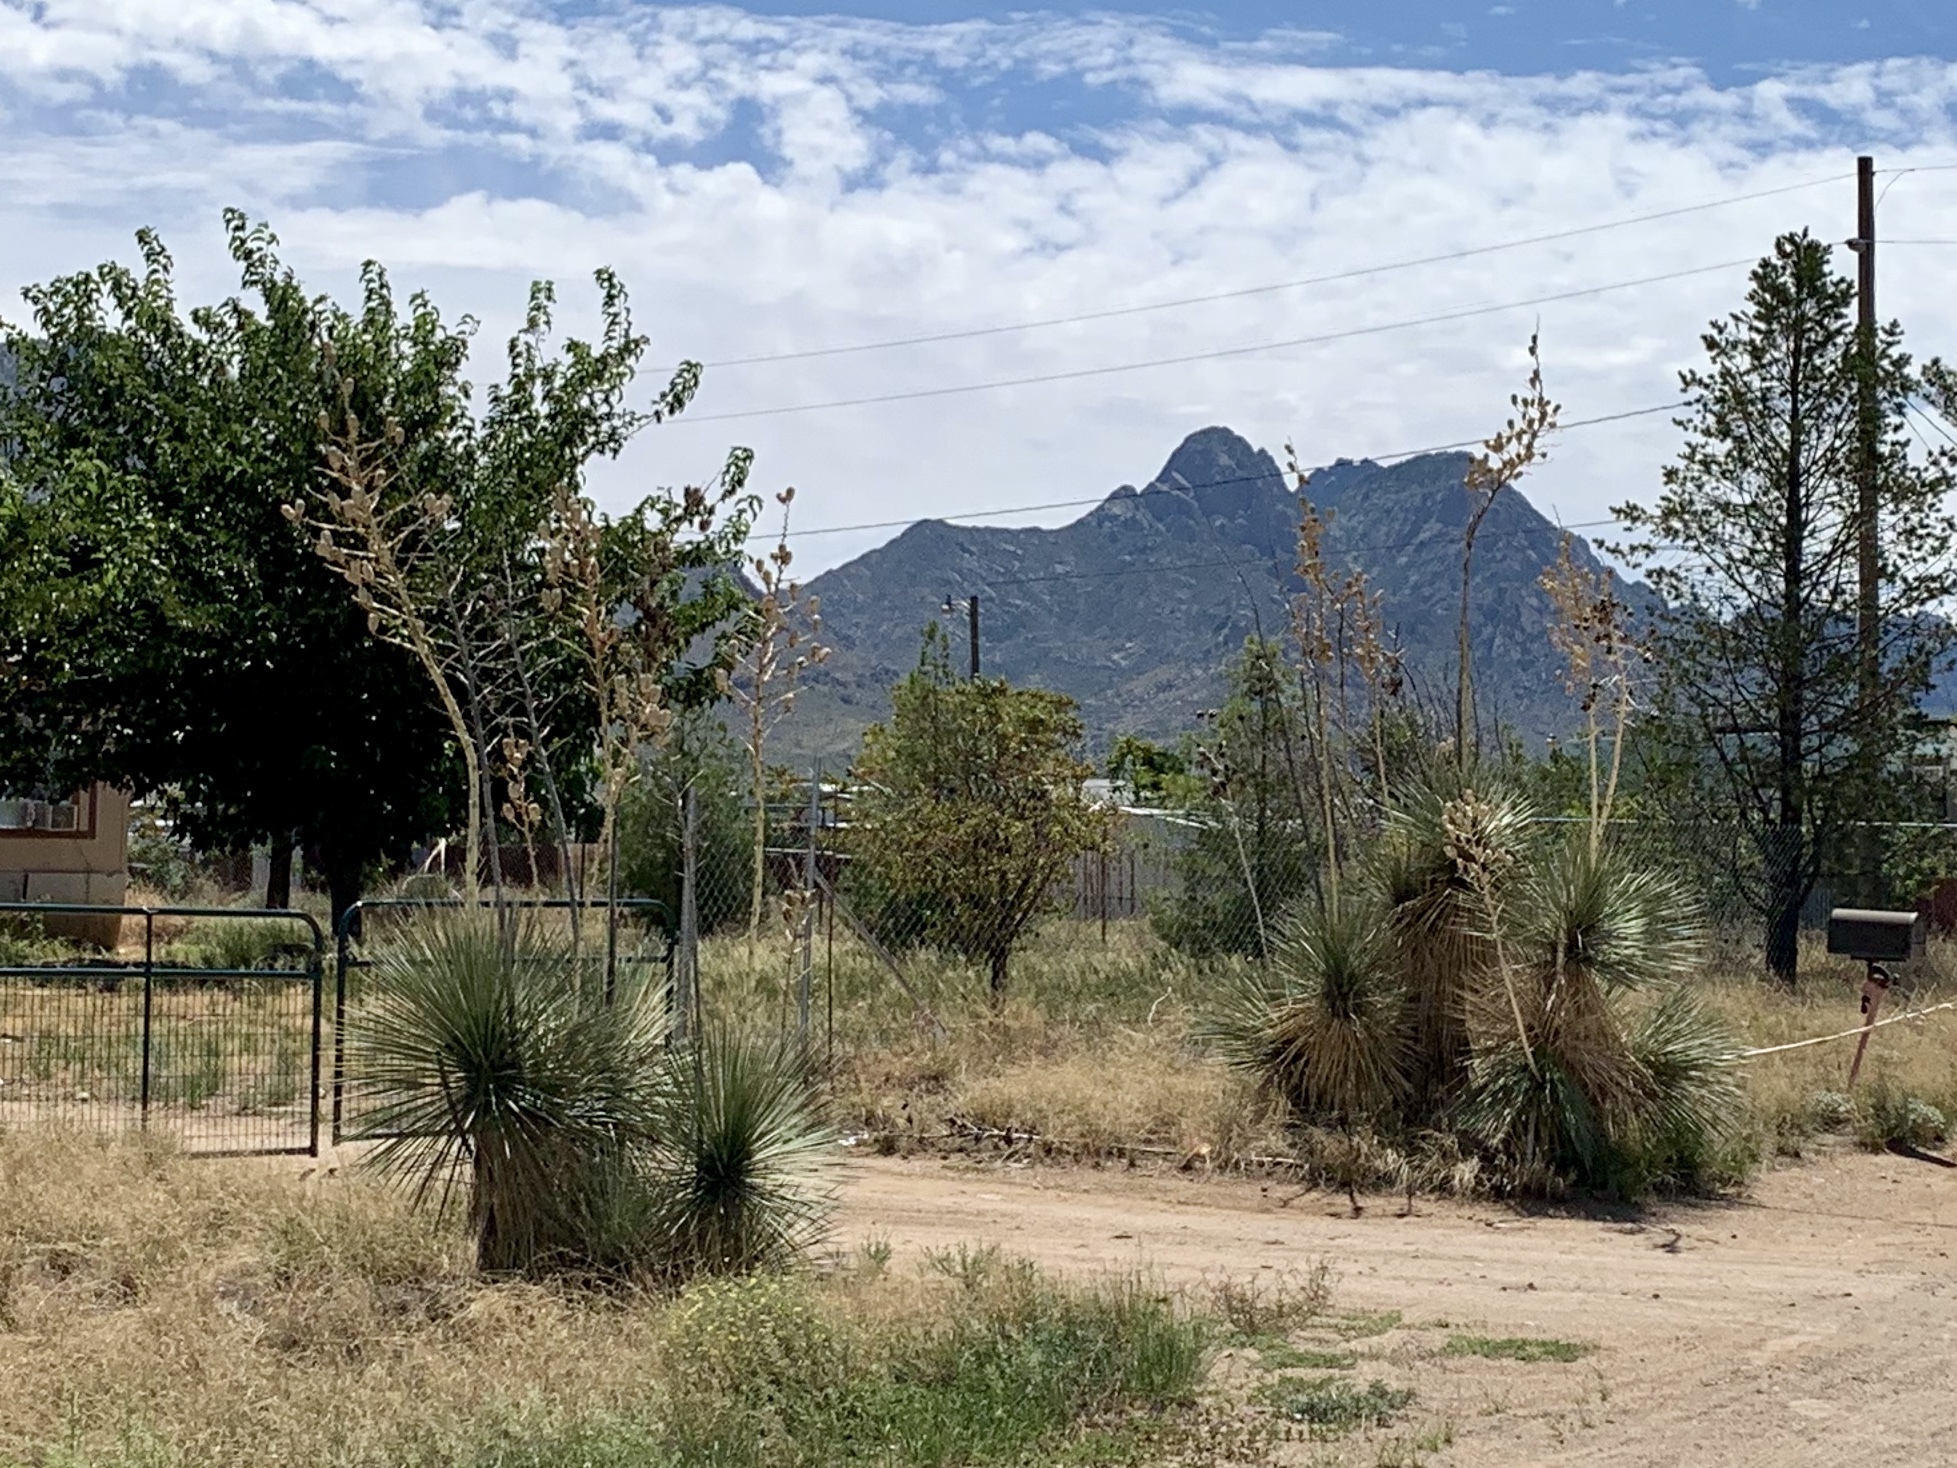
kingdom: Plantae
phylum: Tracheophyta
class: Liliopsida
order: Asparagales
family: Asparagaceae
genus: Yucca
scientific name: Yucca elata
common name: Palmella
